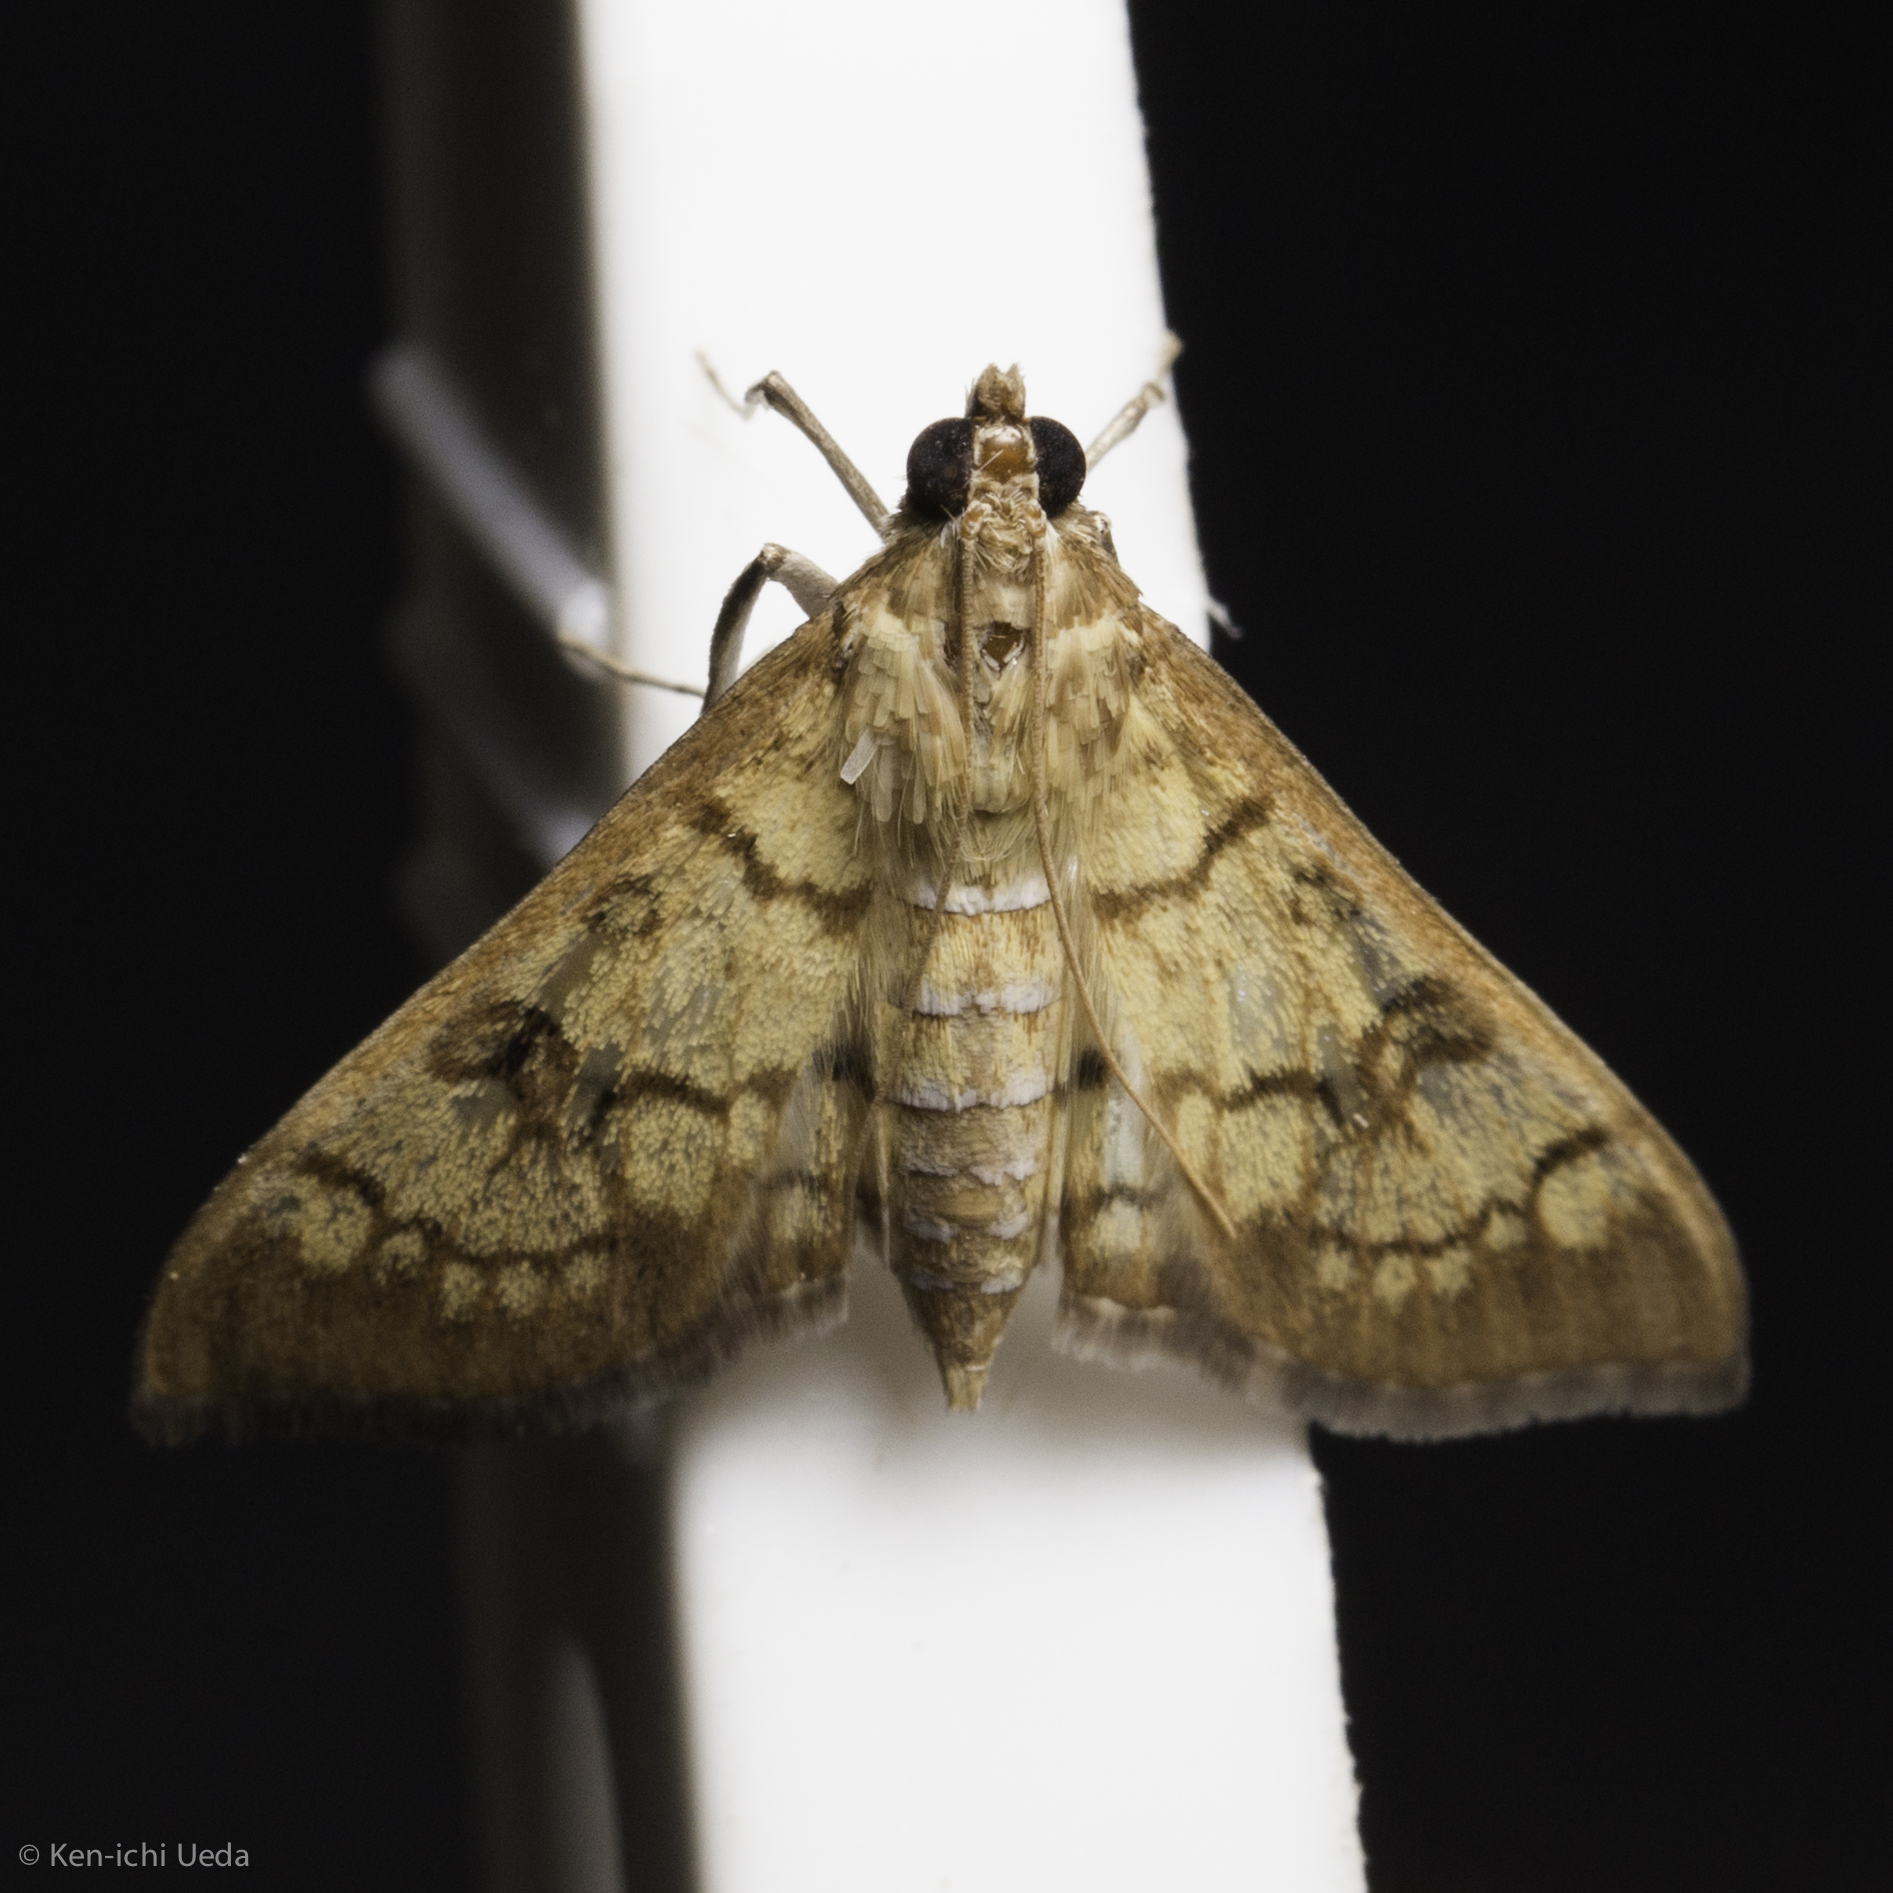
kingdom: Animalia
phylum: Arthropoda
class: Insecta
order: Lepidoptera
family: Crambidae
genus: Mimorista
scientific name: Mimorista subcostalis
